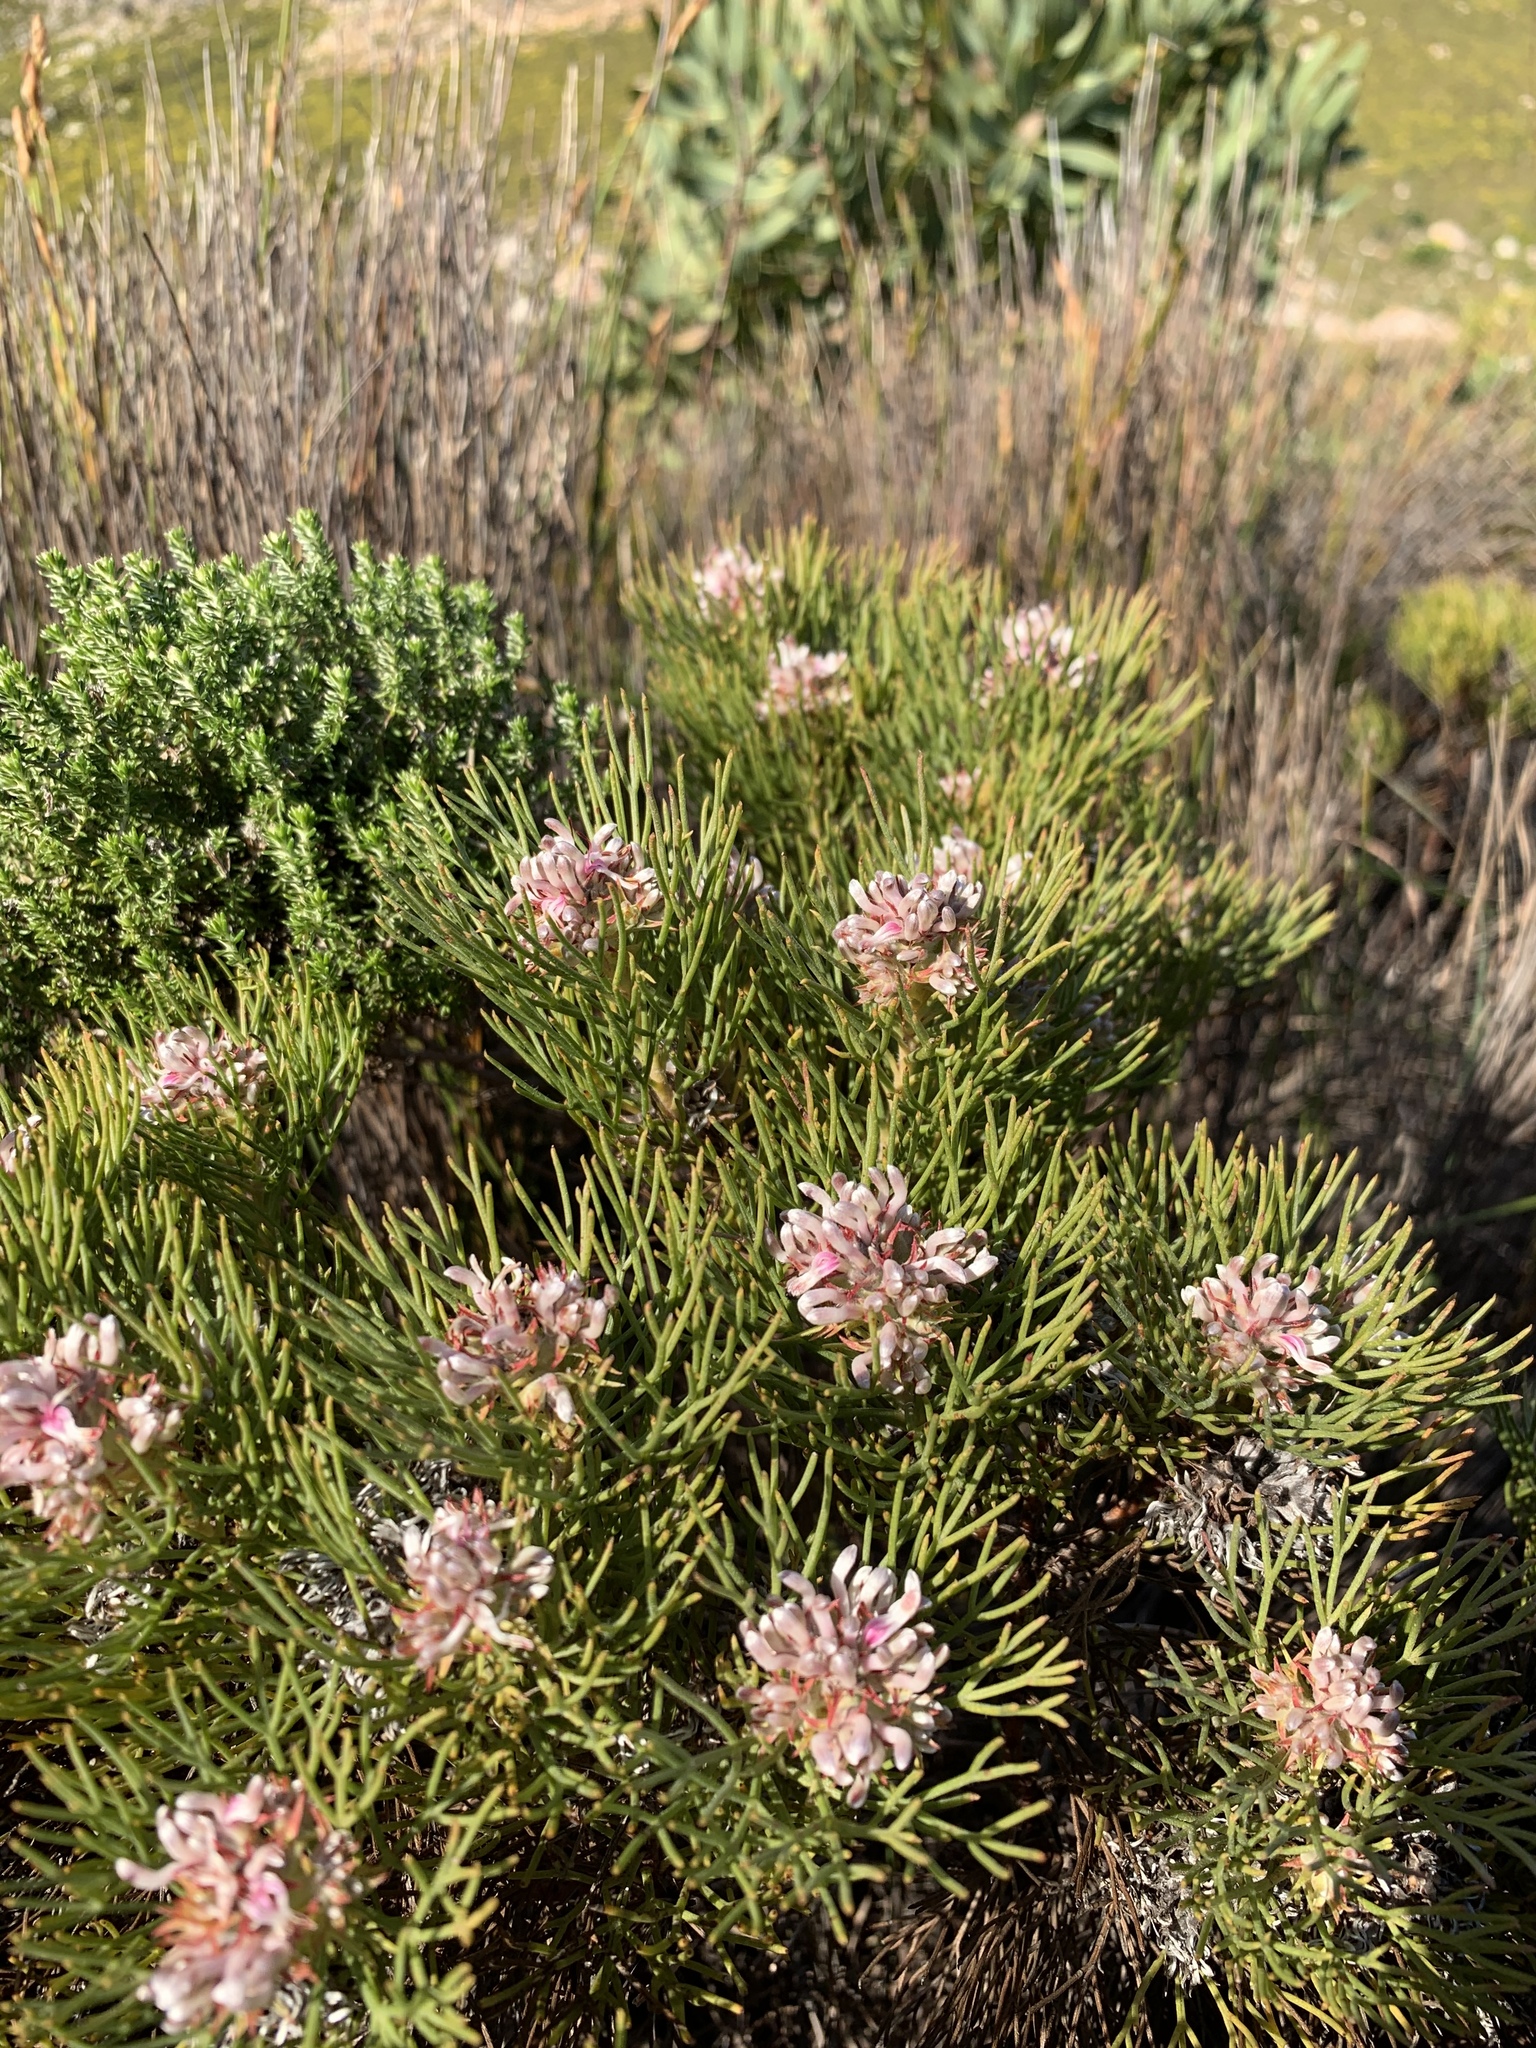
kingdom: Plantae
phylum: Tracheophyta
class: Magnoliopsida
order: Proteales
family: Proteaceae
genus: Serruria
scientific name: Serruria ascendens
